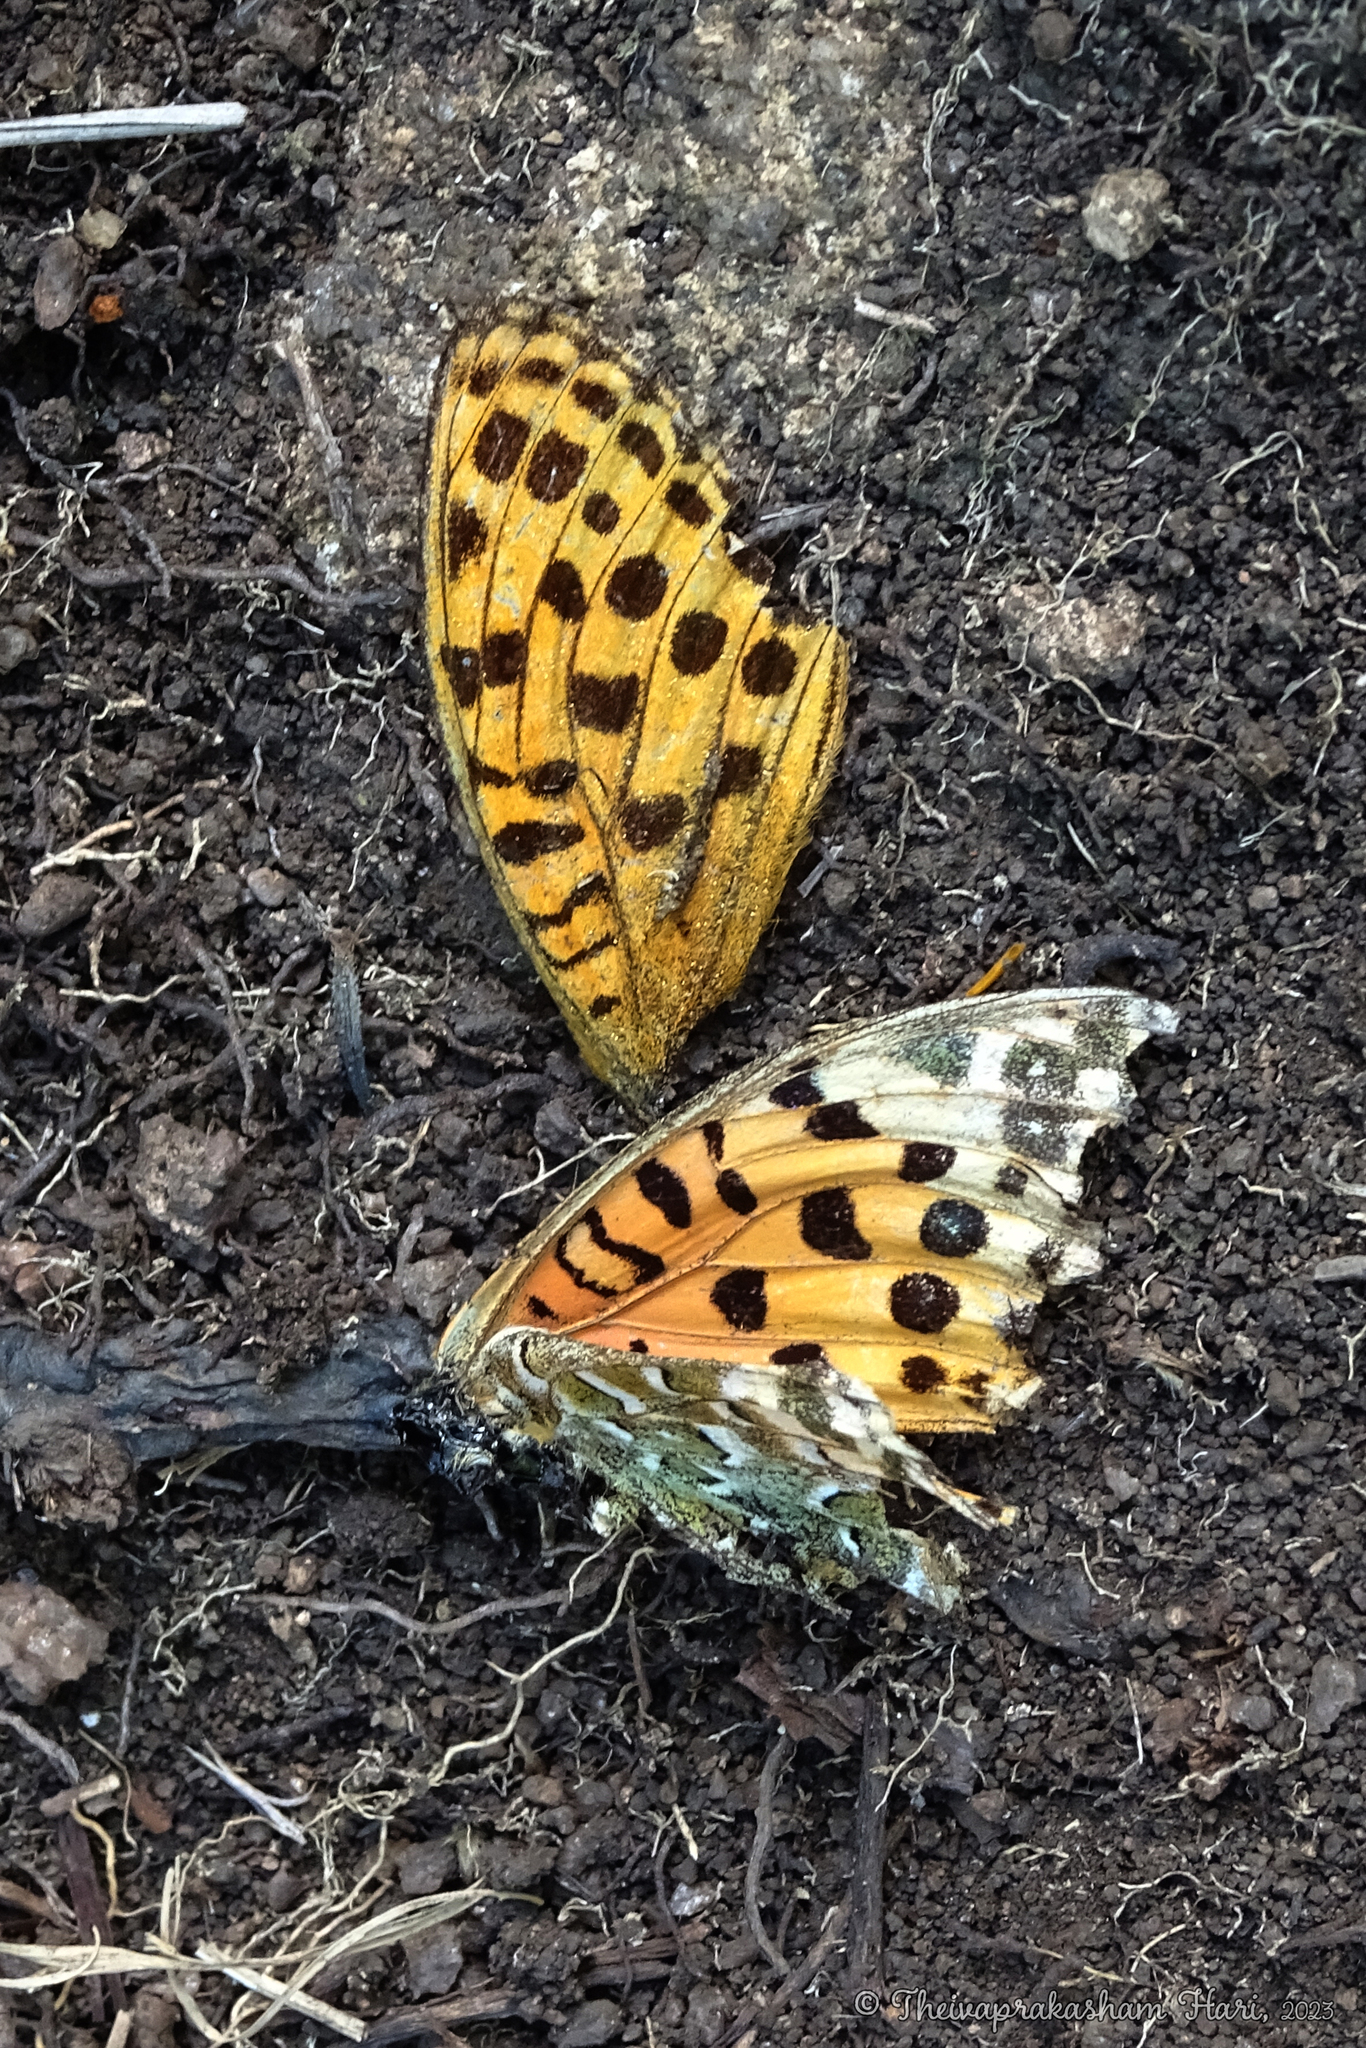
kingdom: Animalia
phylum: Arthropoda
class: Insecta
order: Lepidoptera
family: Nymphalidae
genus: Argyreus
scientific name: Argyreus hyperbius
